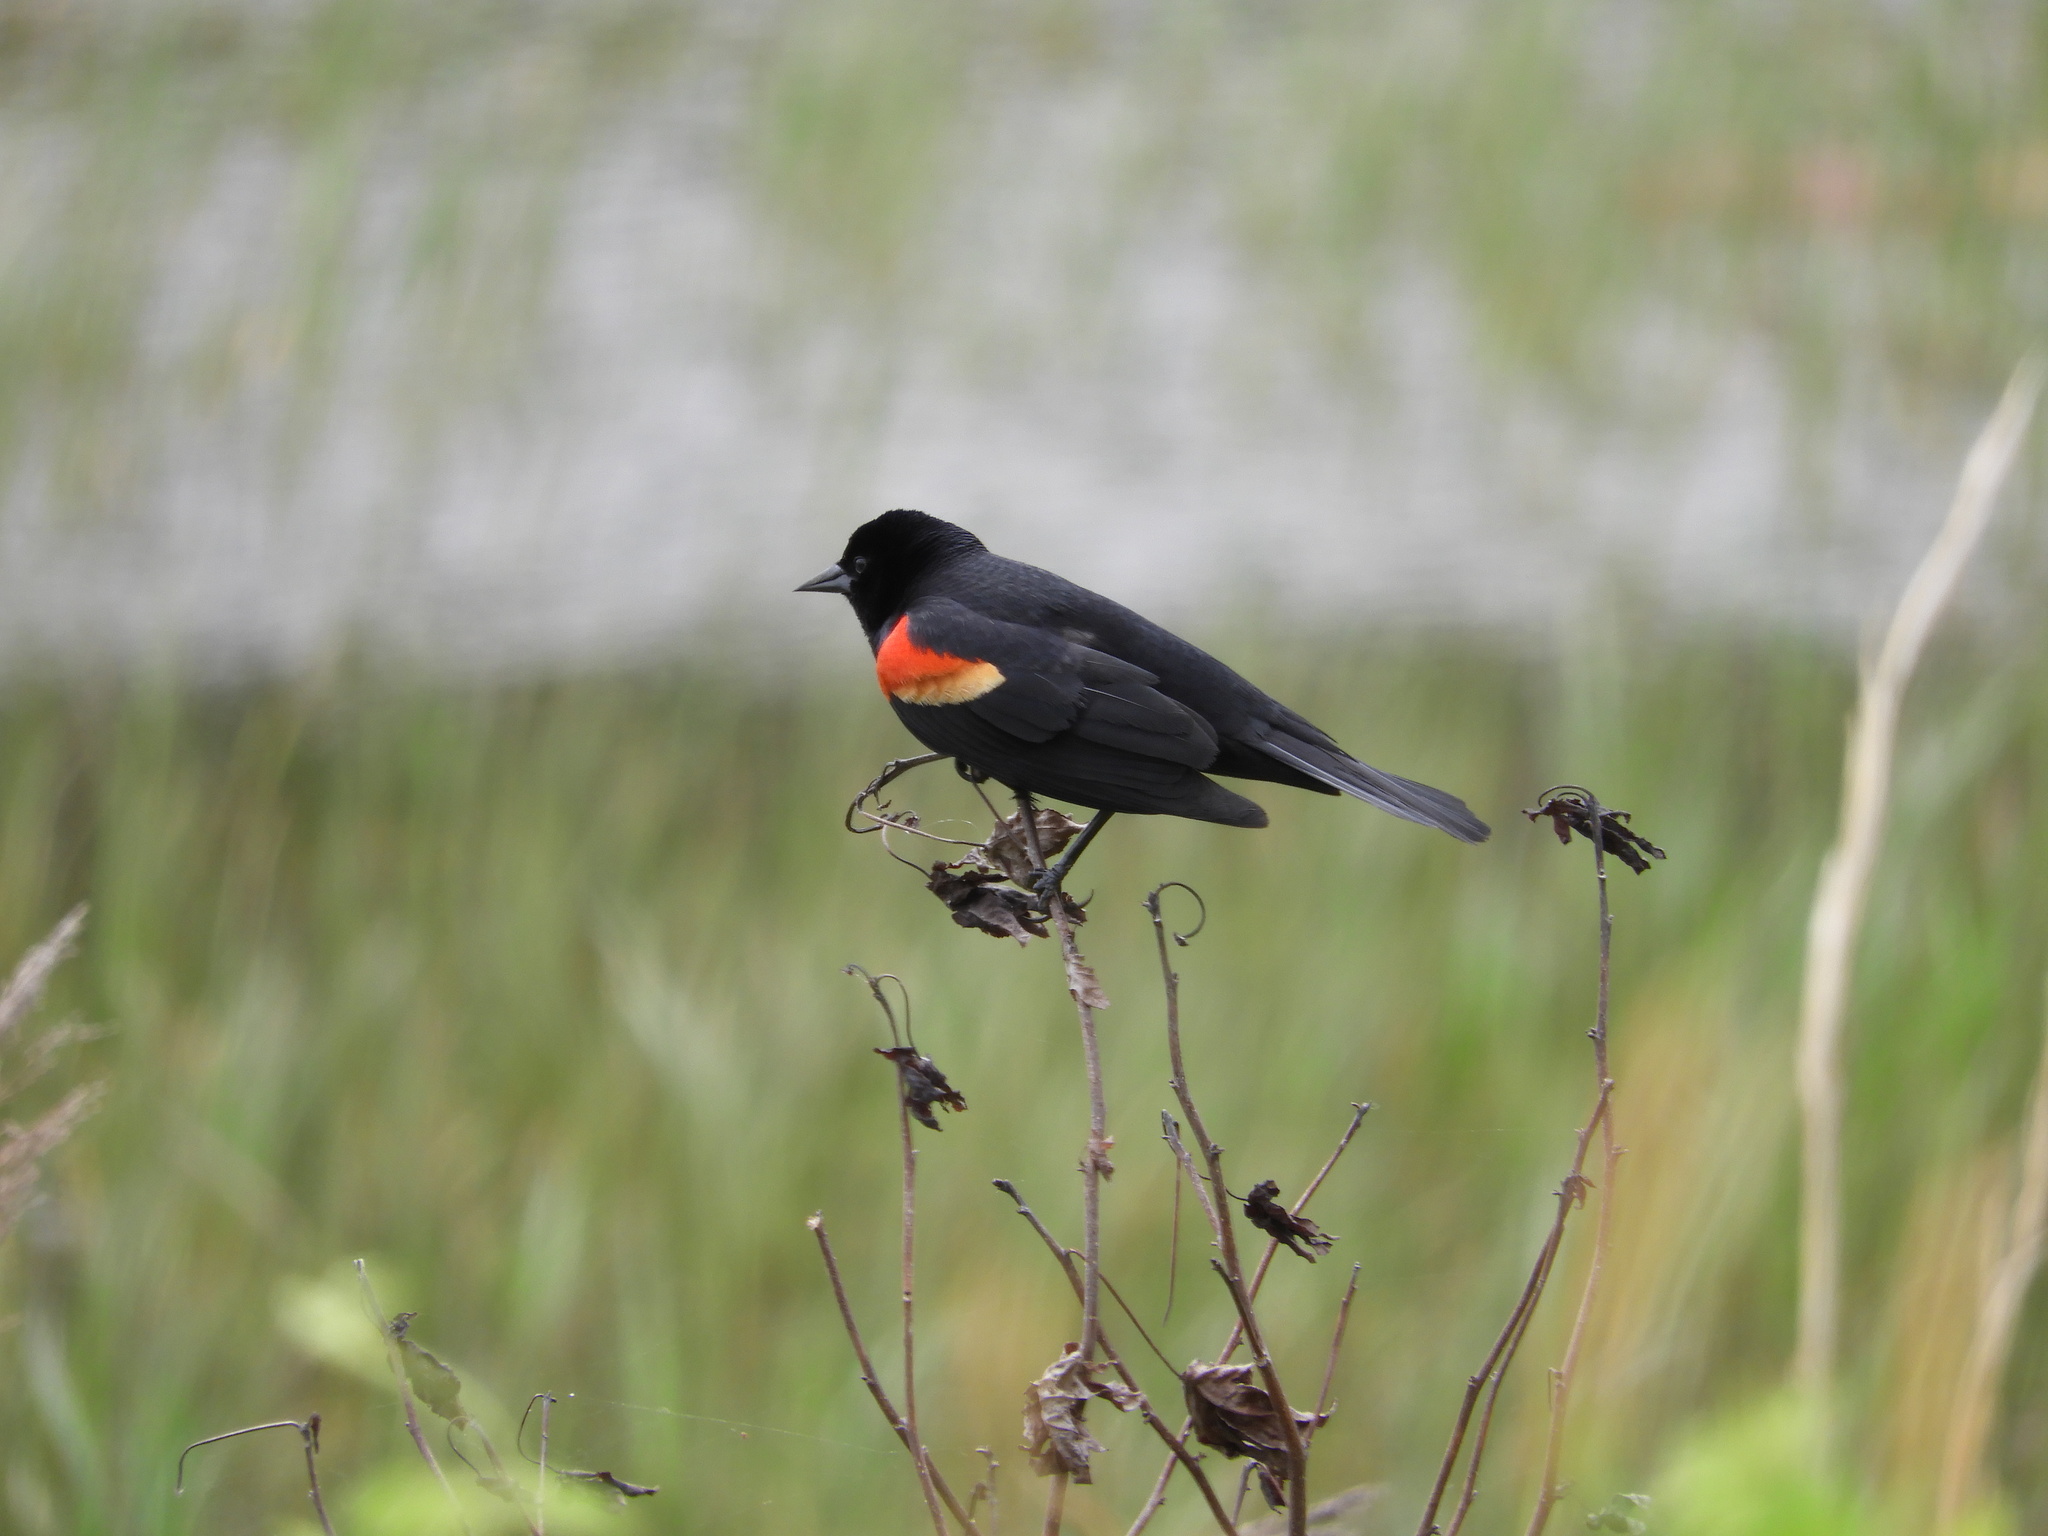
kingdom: Animalia
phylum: Chordata
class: Aves
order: Passeriformes
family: Icteridae
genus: Agelaius
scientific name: Agelaius phoeniceus
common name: Red-winged blackbird
